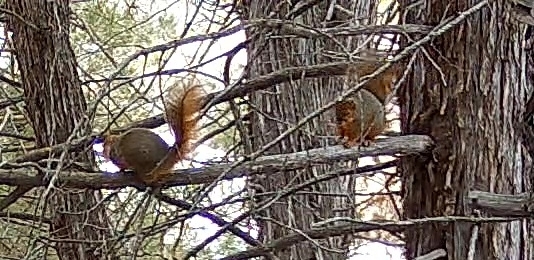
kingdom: Animalia
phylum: Chordata
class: Mammalia
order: Rodentia
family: Sciuridae
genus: Sciurus
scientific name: Sciurus niger
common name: Fox squirrel
